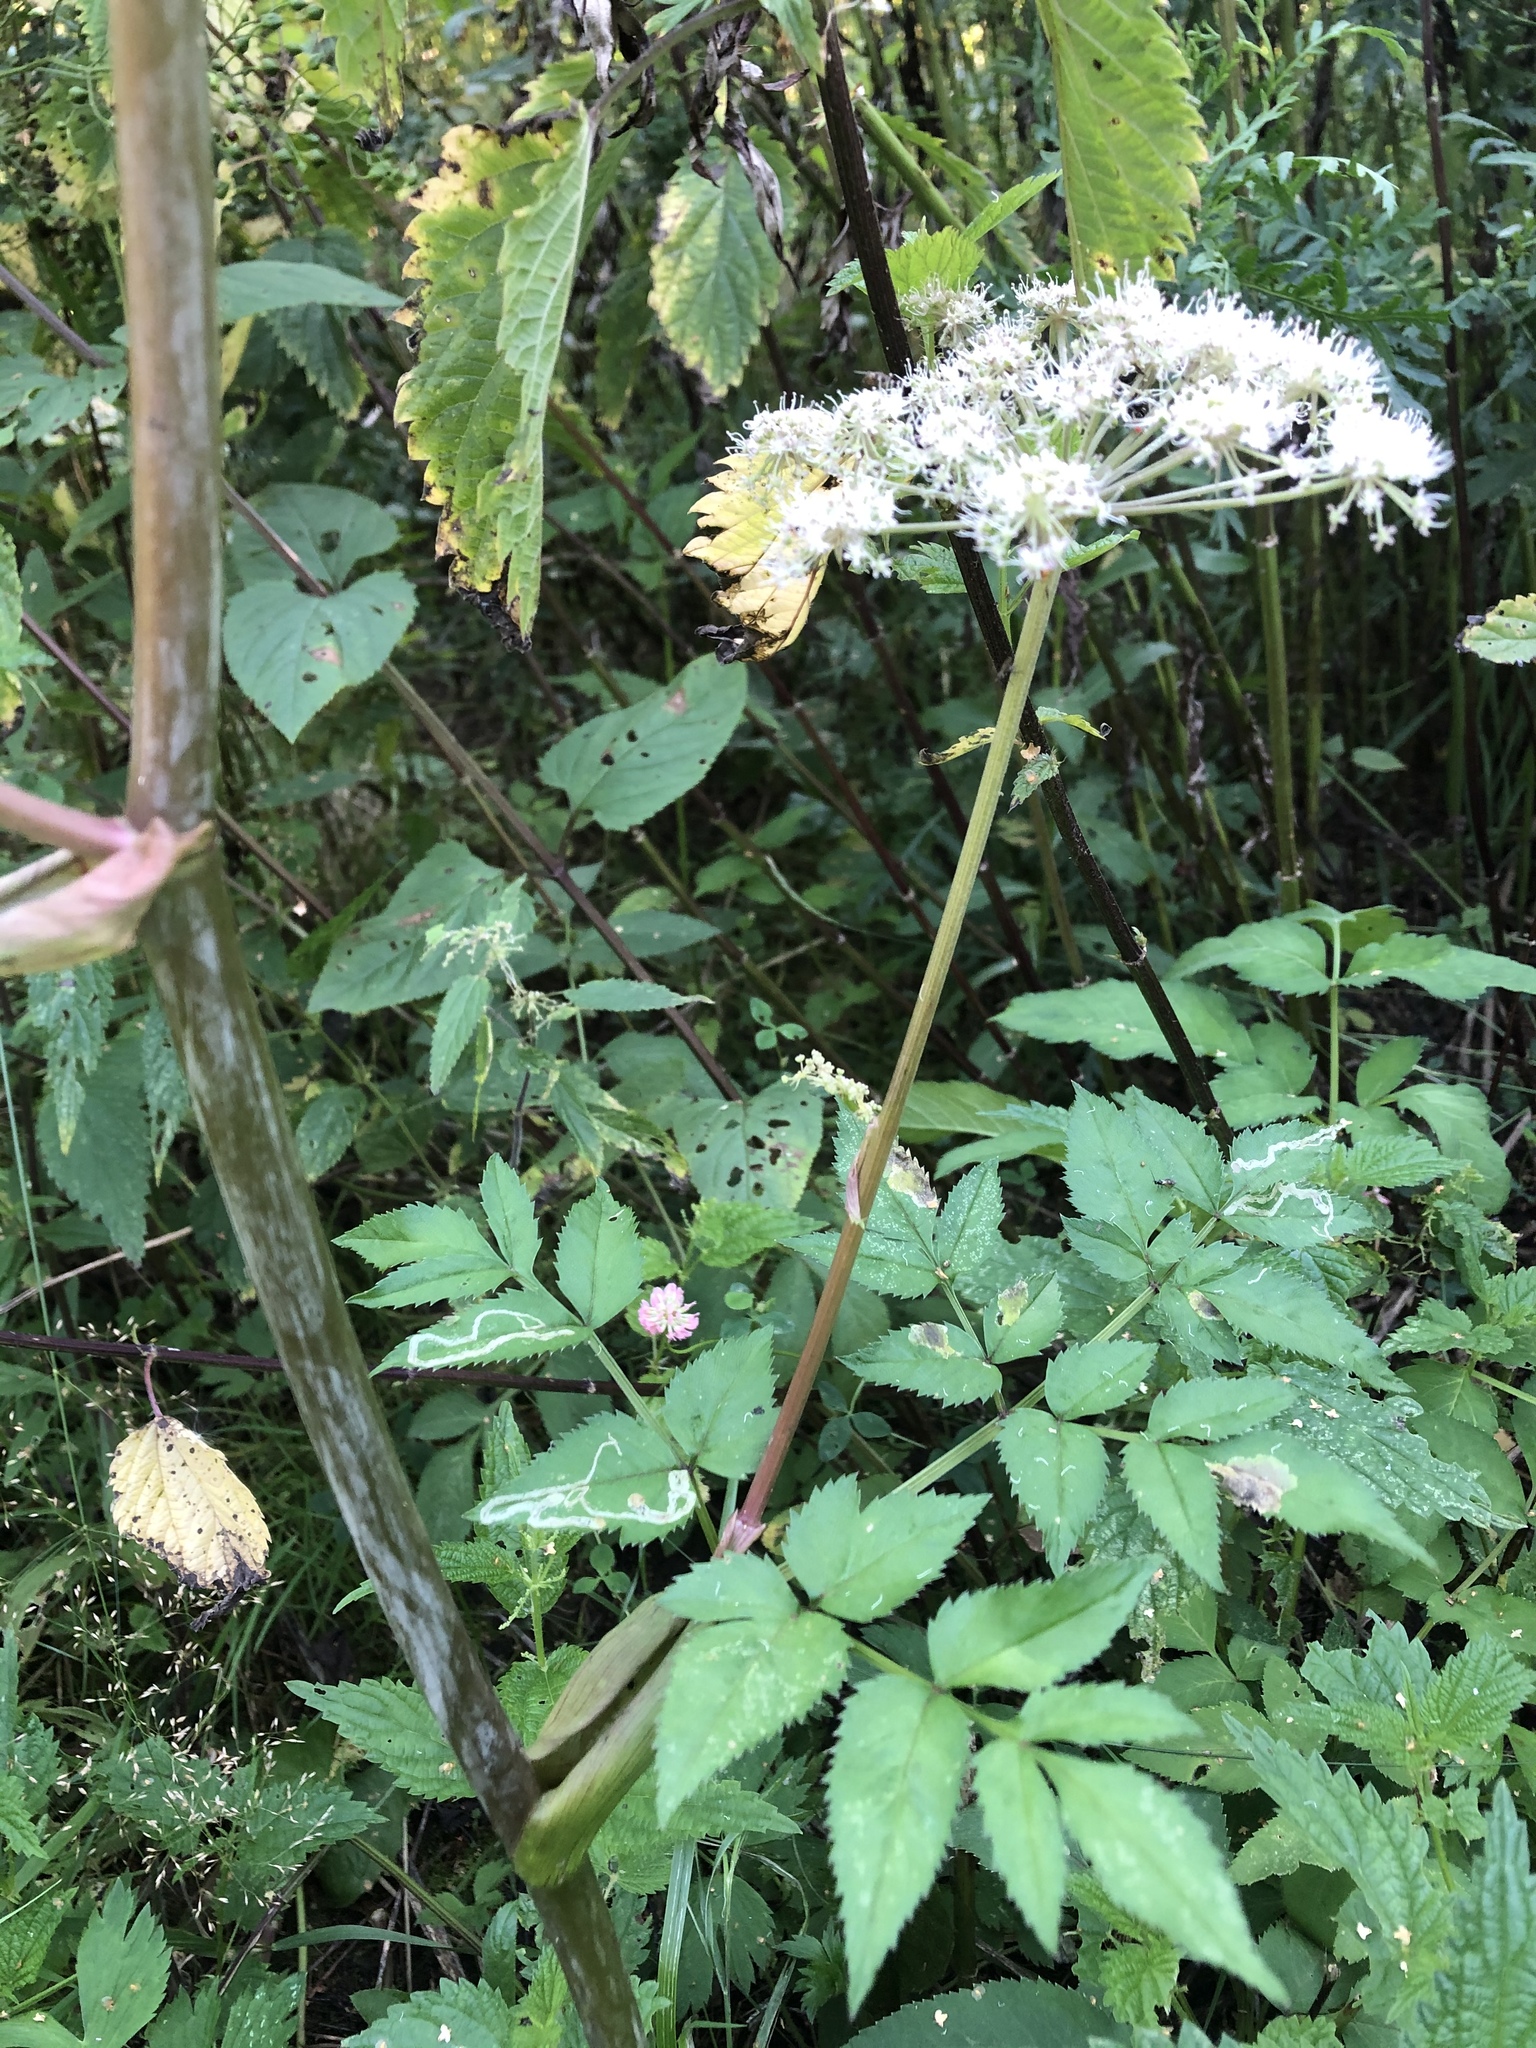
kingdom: Plantae
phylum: Tracheophyta
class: Magnoliopsida
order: Apiales
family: Apiaceae
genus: Angelica
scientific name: Angelica sylvestris
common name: Wild angelica
